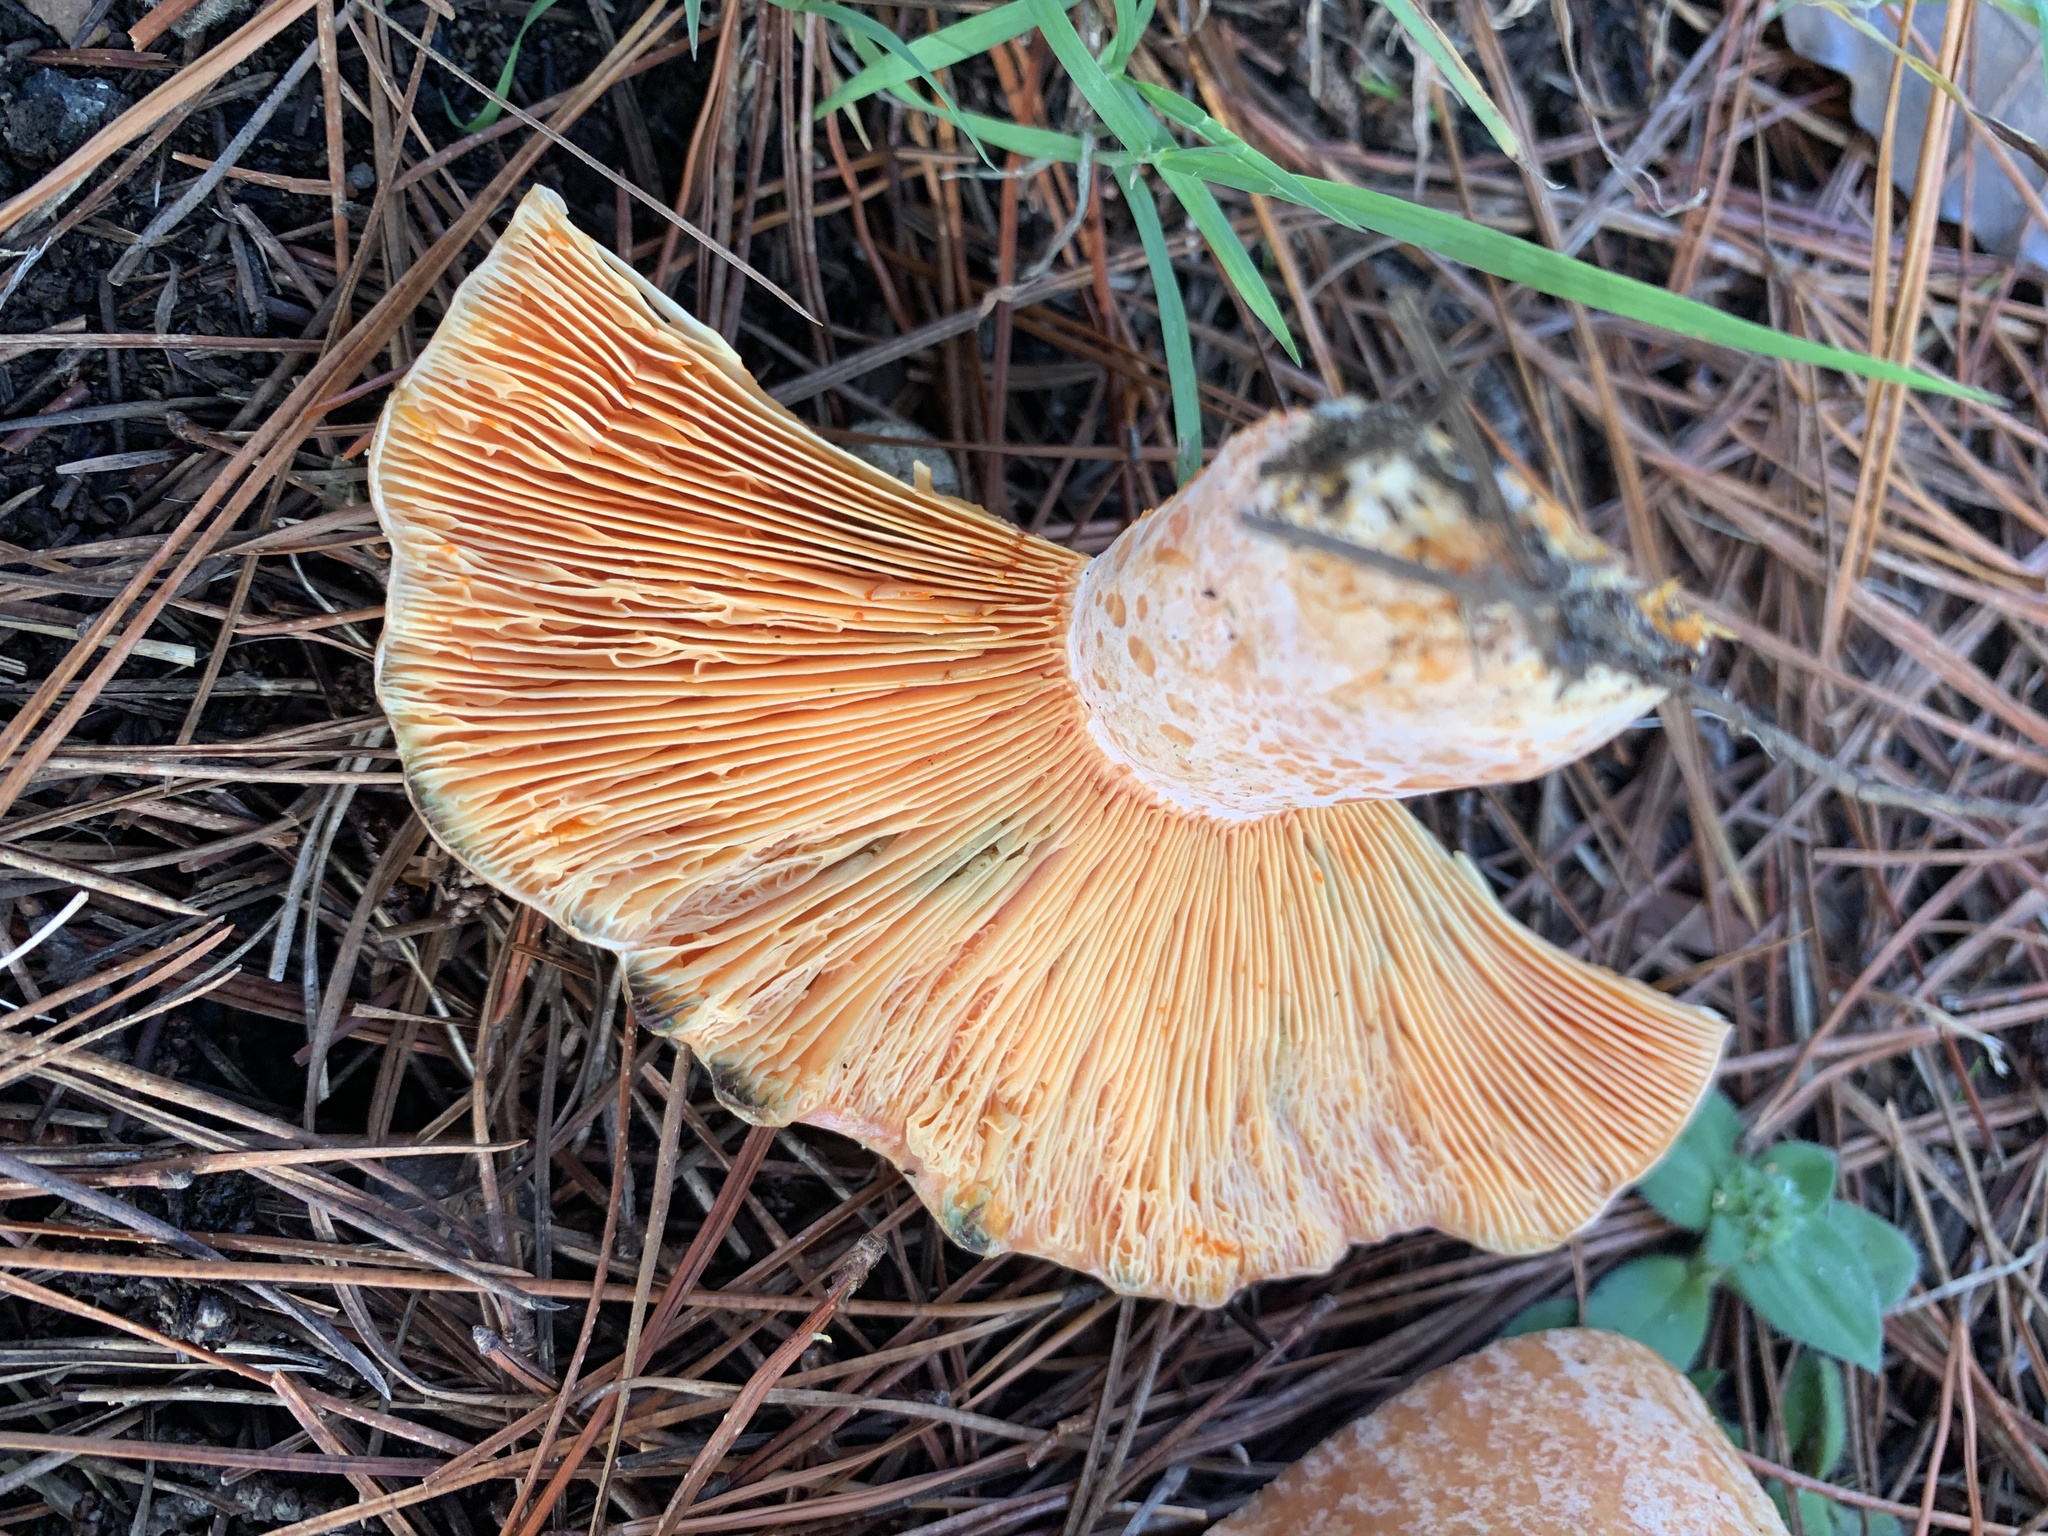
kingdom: Fungi
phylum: Basidiomycota
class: Agaricomycetes
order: Russulales
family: Russulaceae
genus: Lactarius
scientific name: Lactarius deliciosus
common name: Saffron milk-cap
